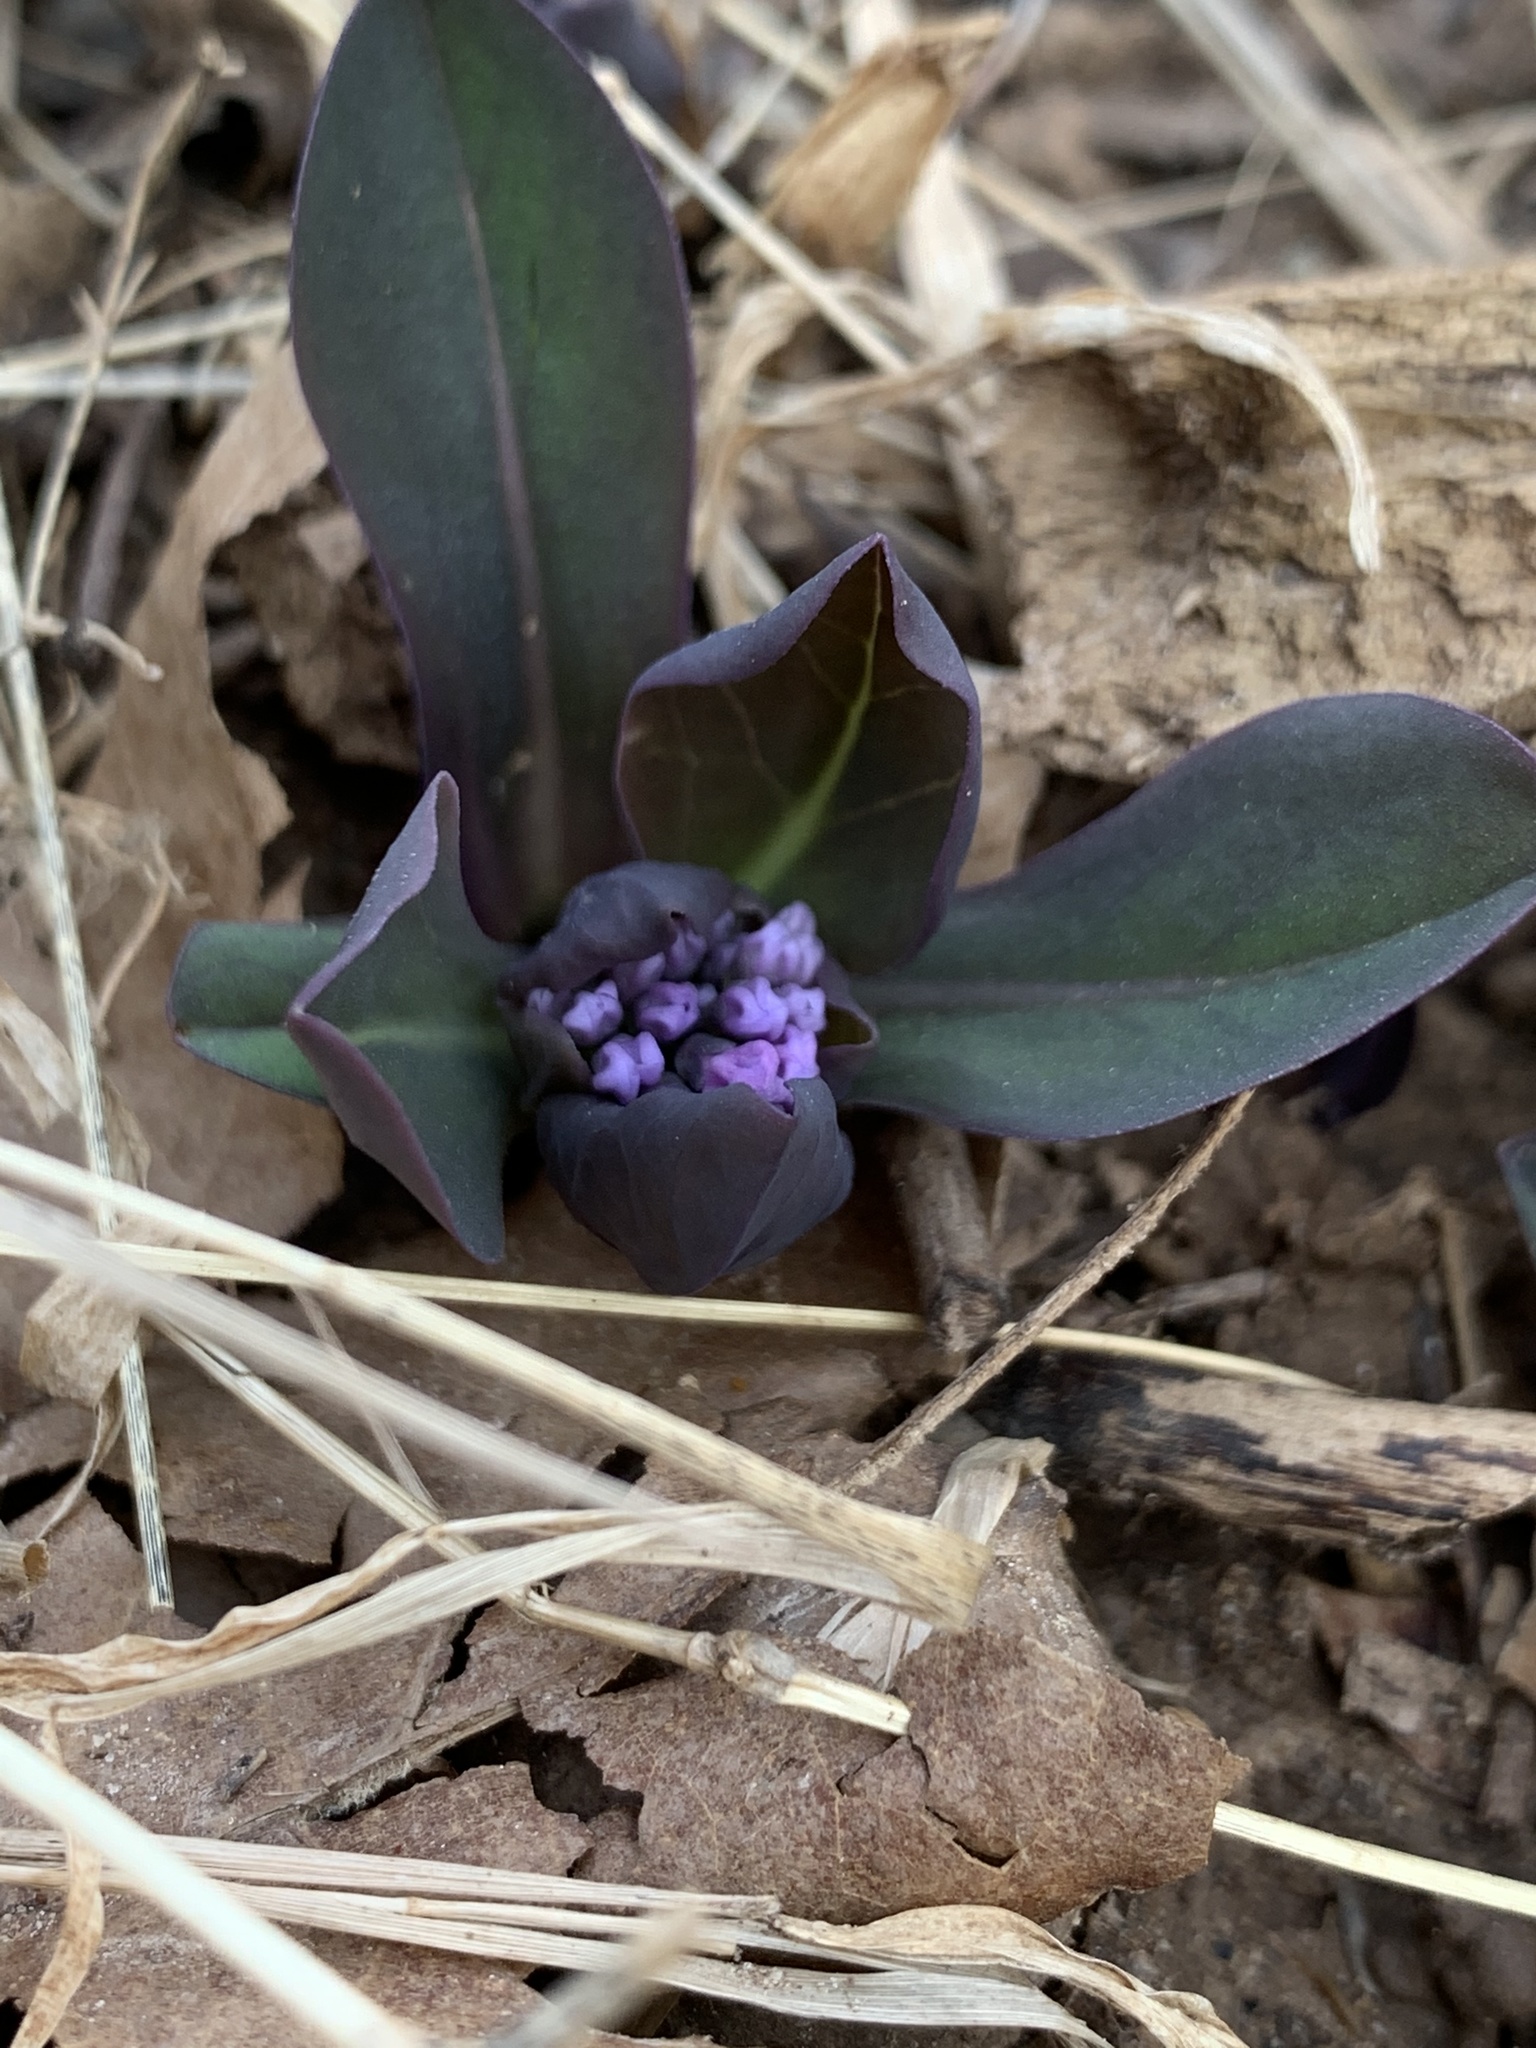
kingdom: Plantae
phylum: Tracheophyta
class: Magnoliopsida
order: Boraginales
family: Boraginaceae
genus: Mertensia
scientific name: Mertensia virginica
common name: Virginia bluebells
